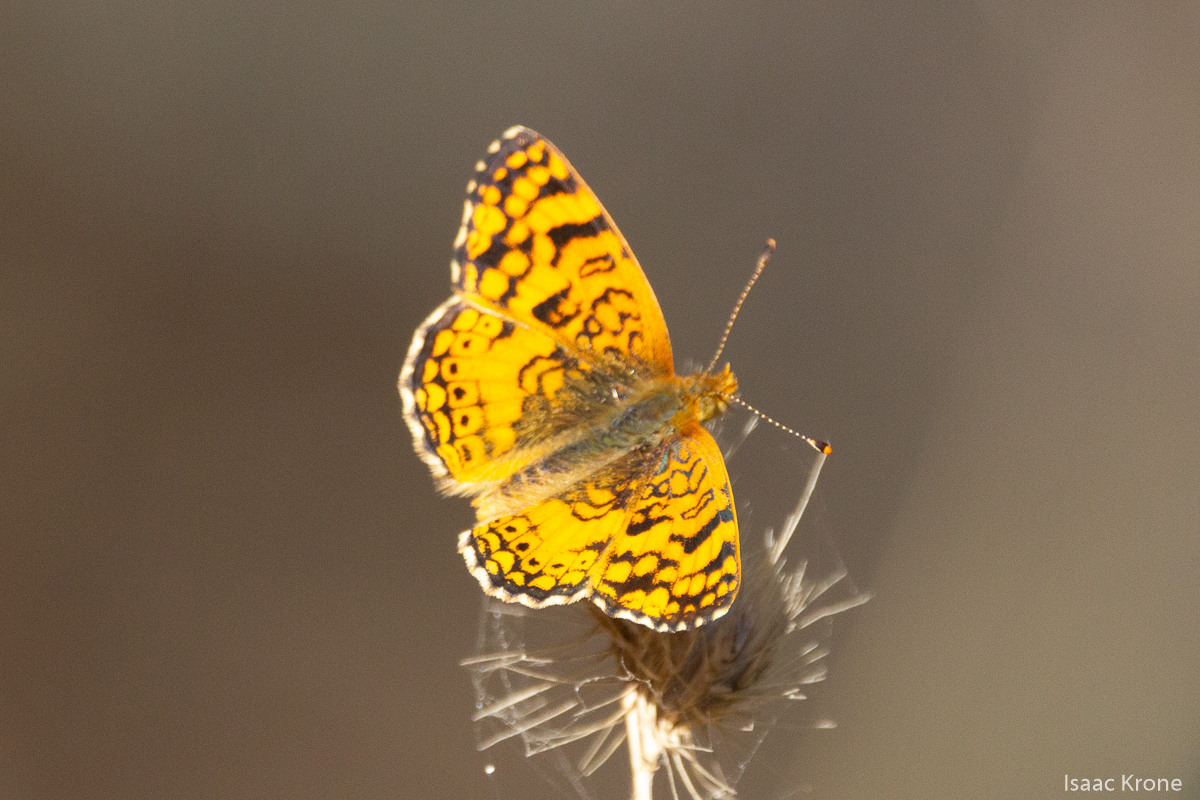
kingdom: Animalia
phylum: Arthropoda
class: Insecta
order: Lepidoptera
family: Nymphalidae
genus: Eresia
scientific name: Eresia aveyrona
